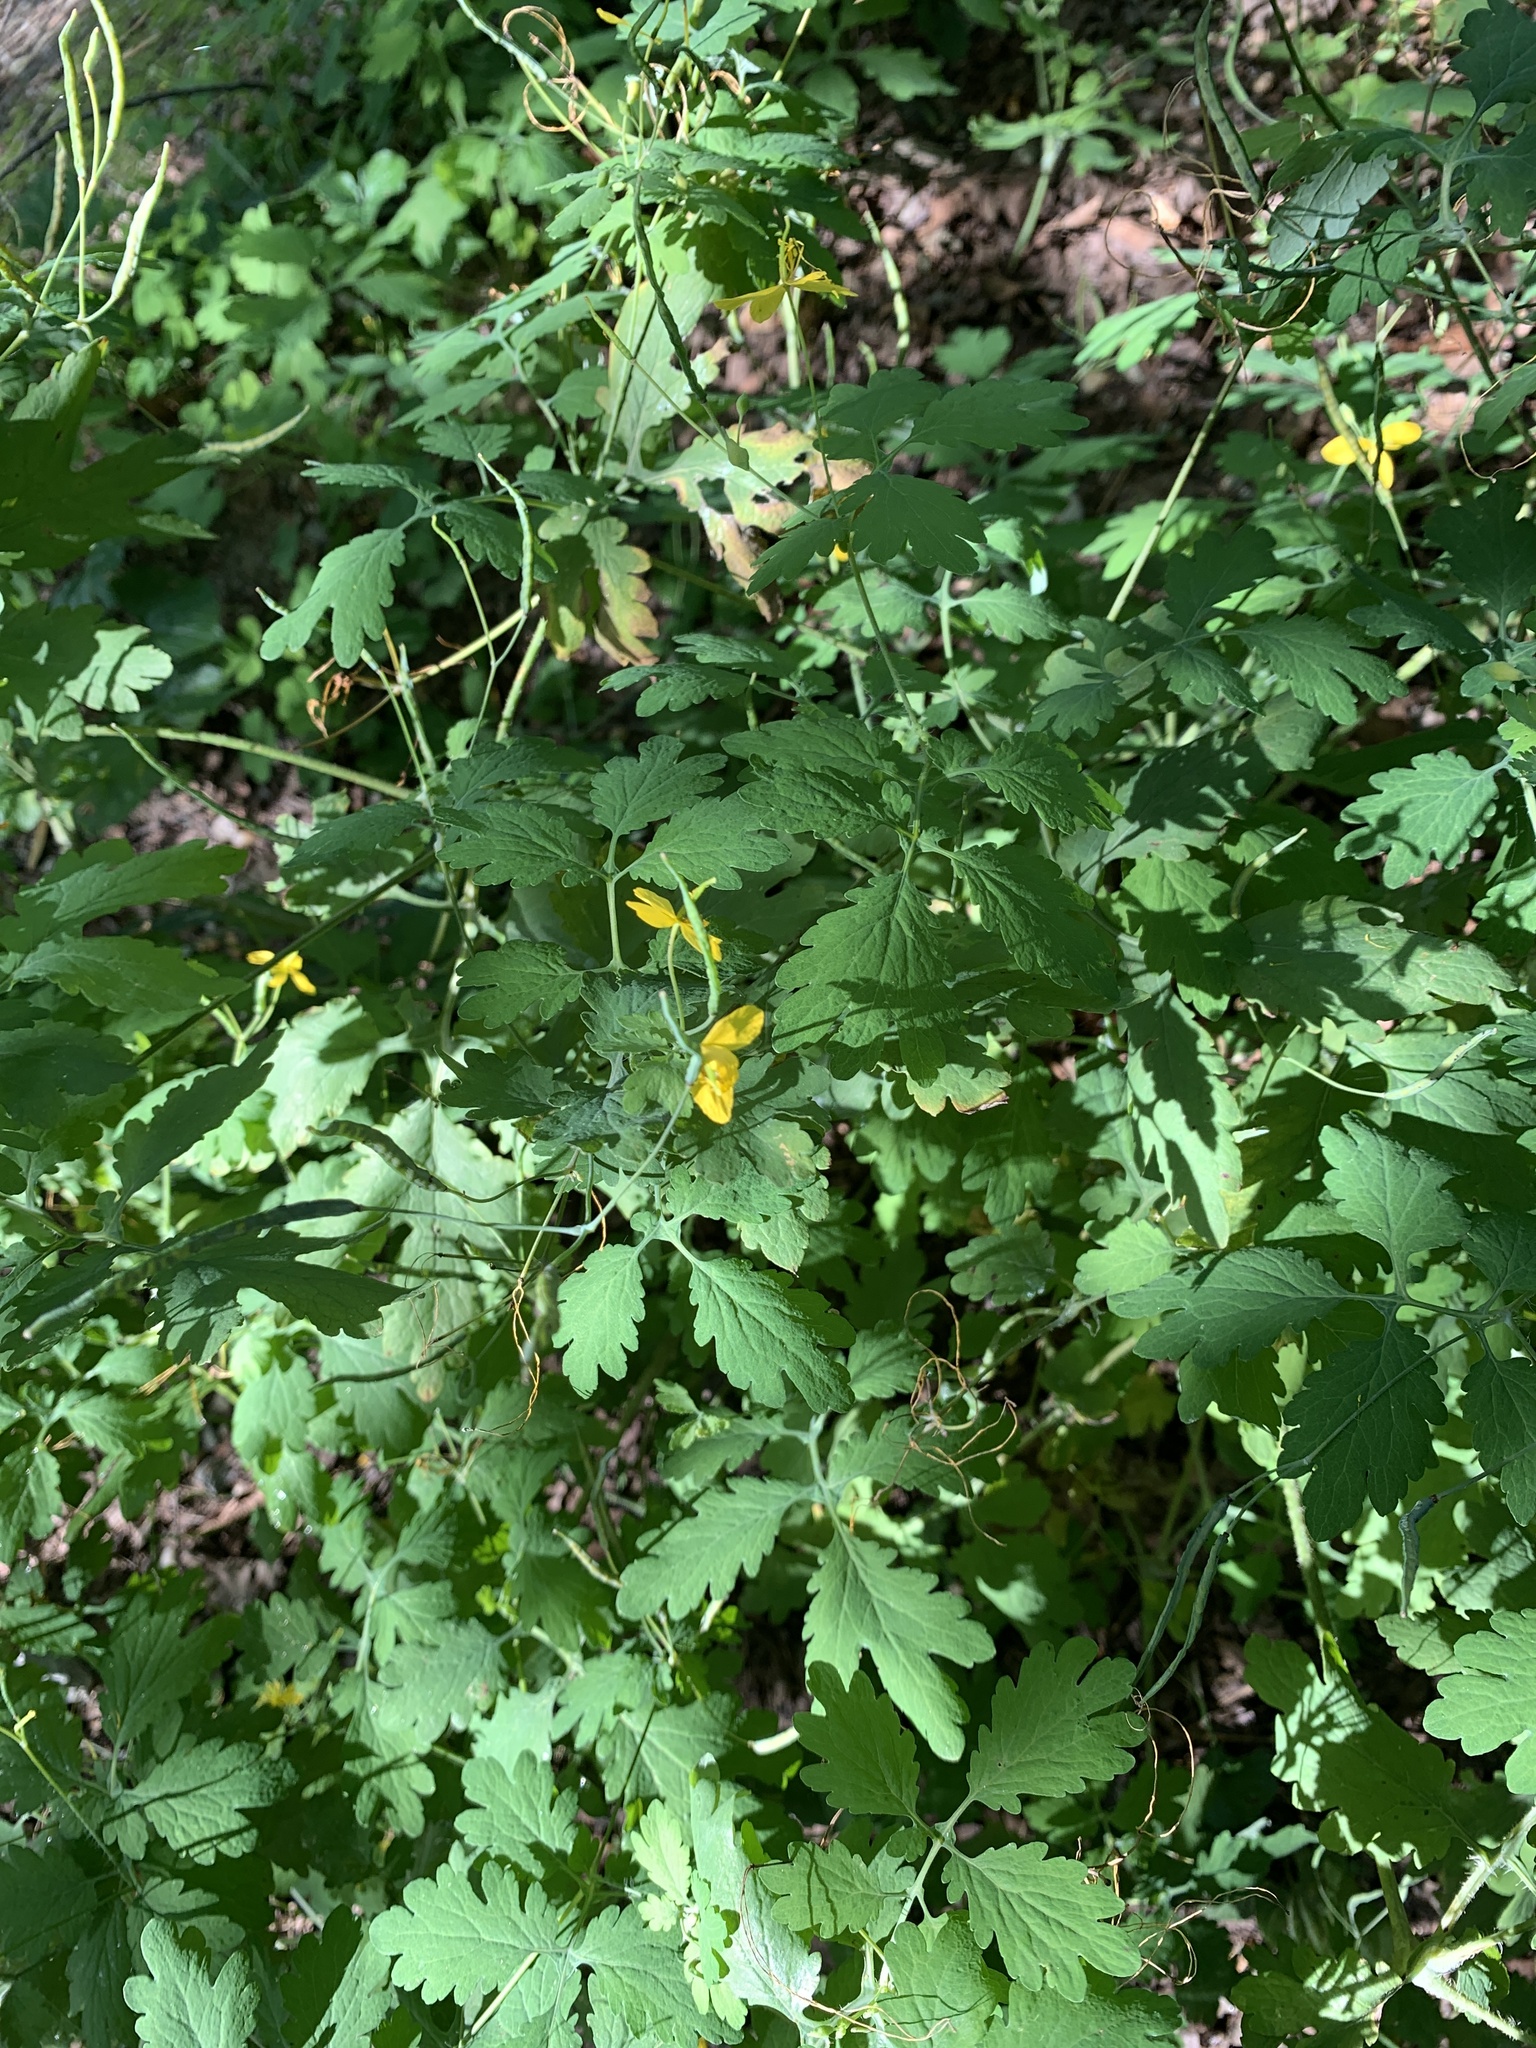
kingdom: Plantae
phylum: Tracheophyta
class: Magnoliopsida
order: Ranunculales
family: Papaveraceae
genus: Chelidonium
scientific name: Chelidonium majus
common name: Greater celandine
